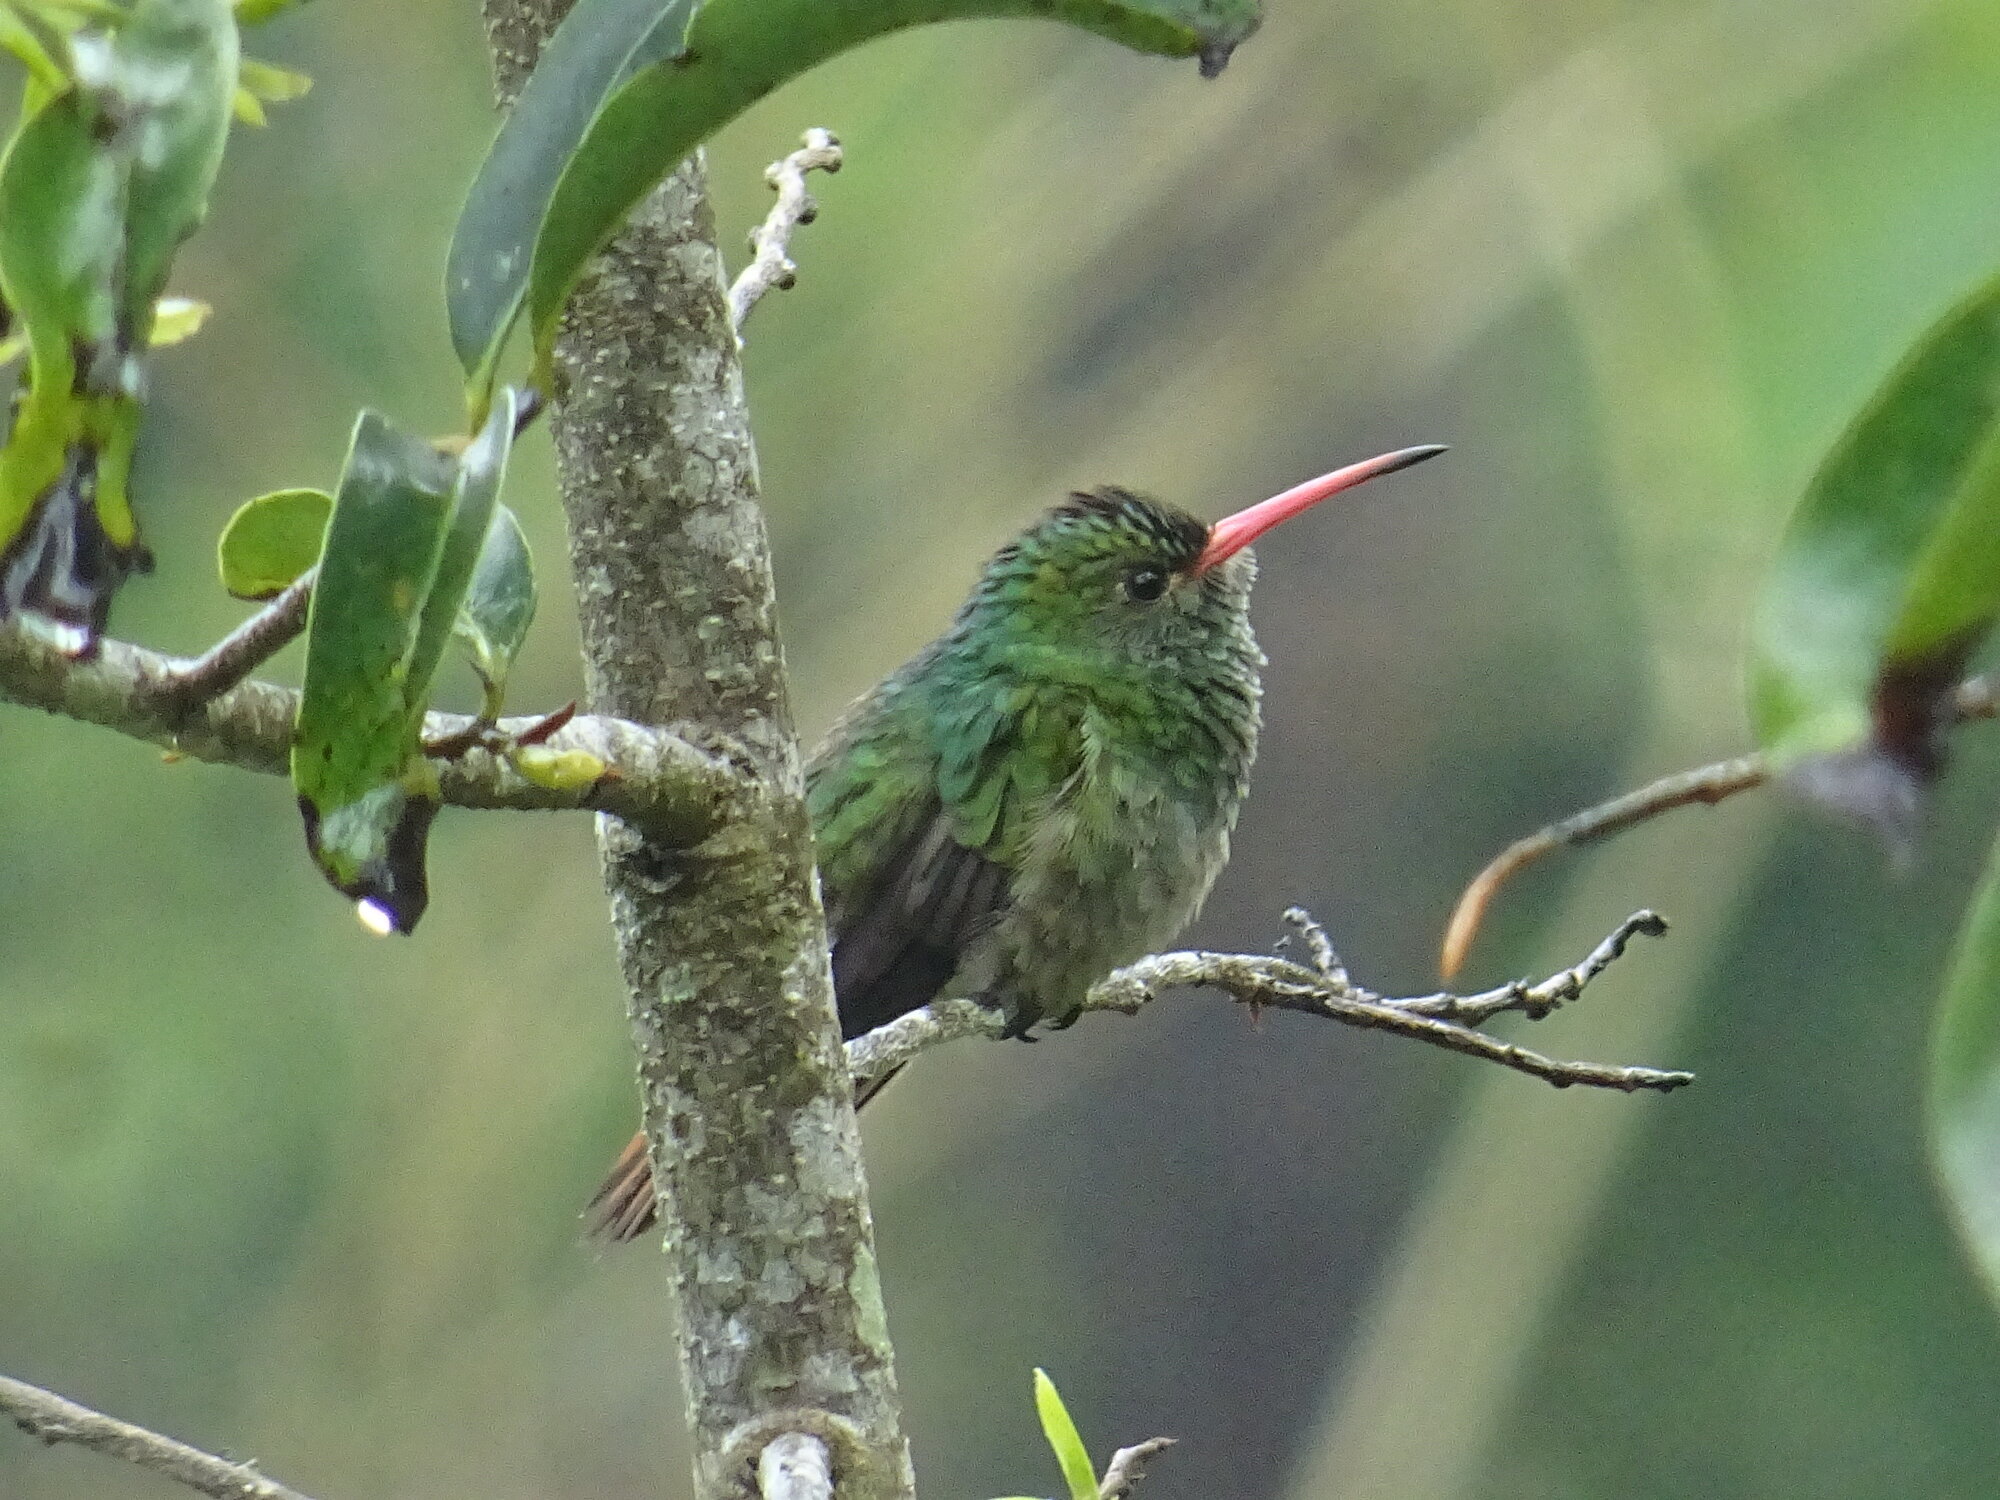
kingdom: Animalia
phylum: Chordata
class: Aves
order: Apodiformes
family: Trochilidae
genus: Amazilia
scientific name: Amazilia tzacatl
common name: Rufous-tailed hummingbird
